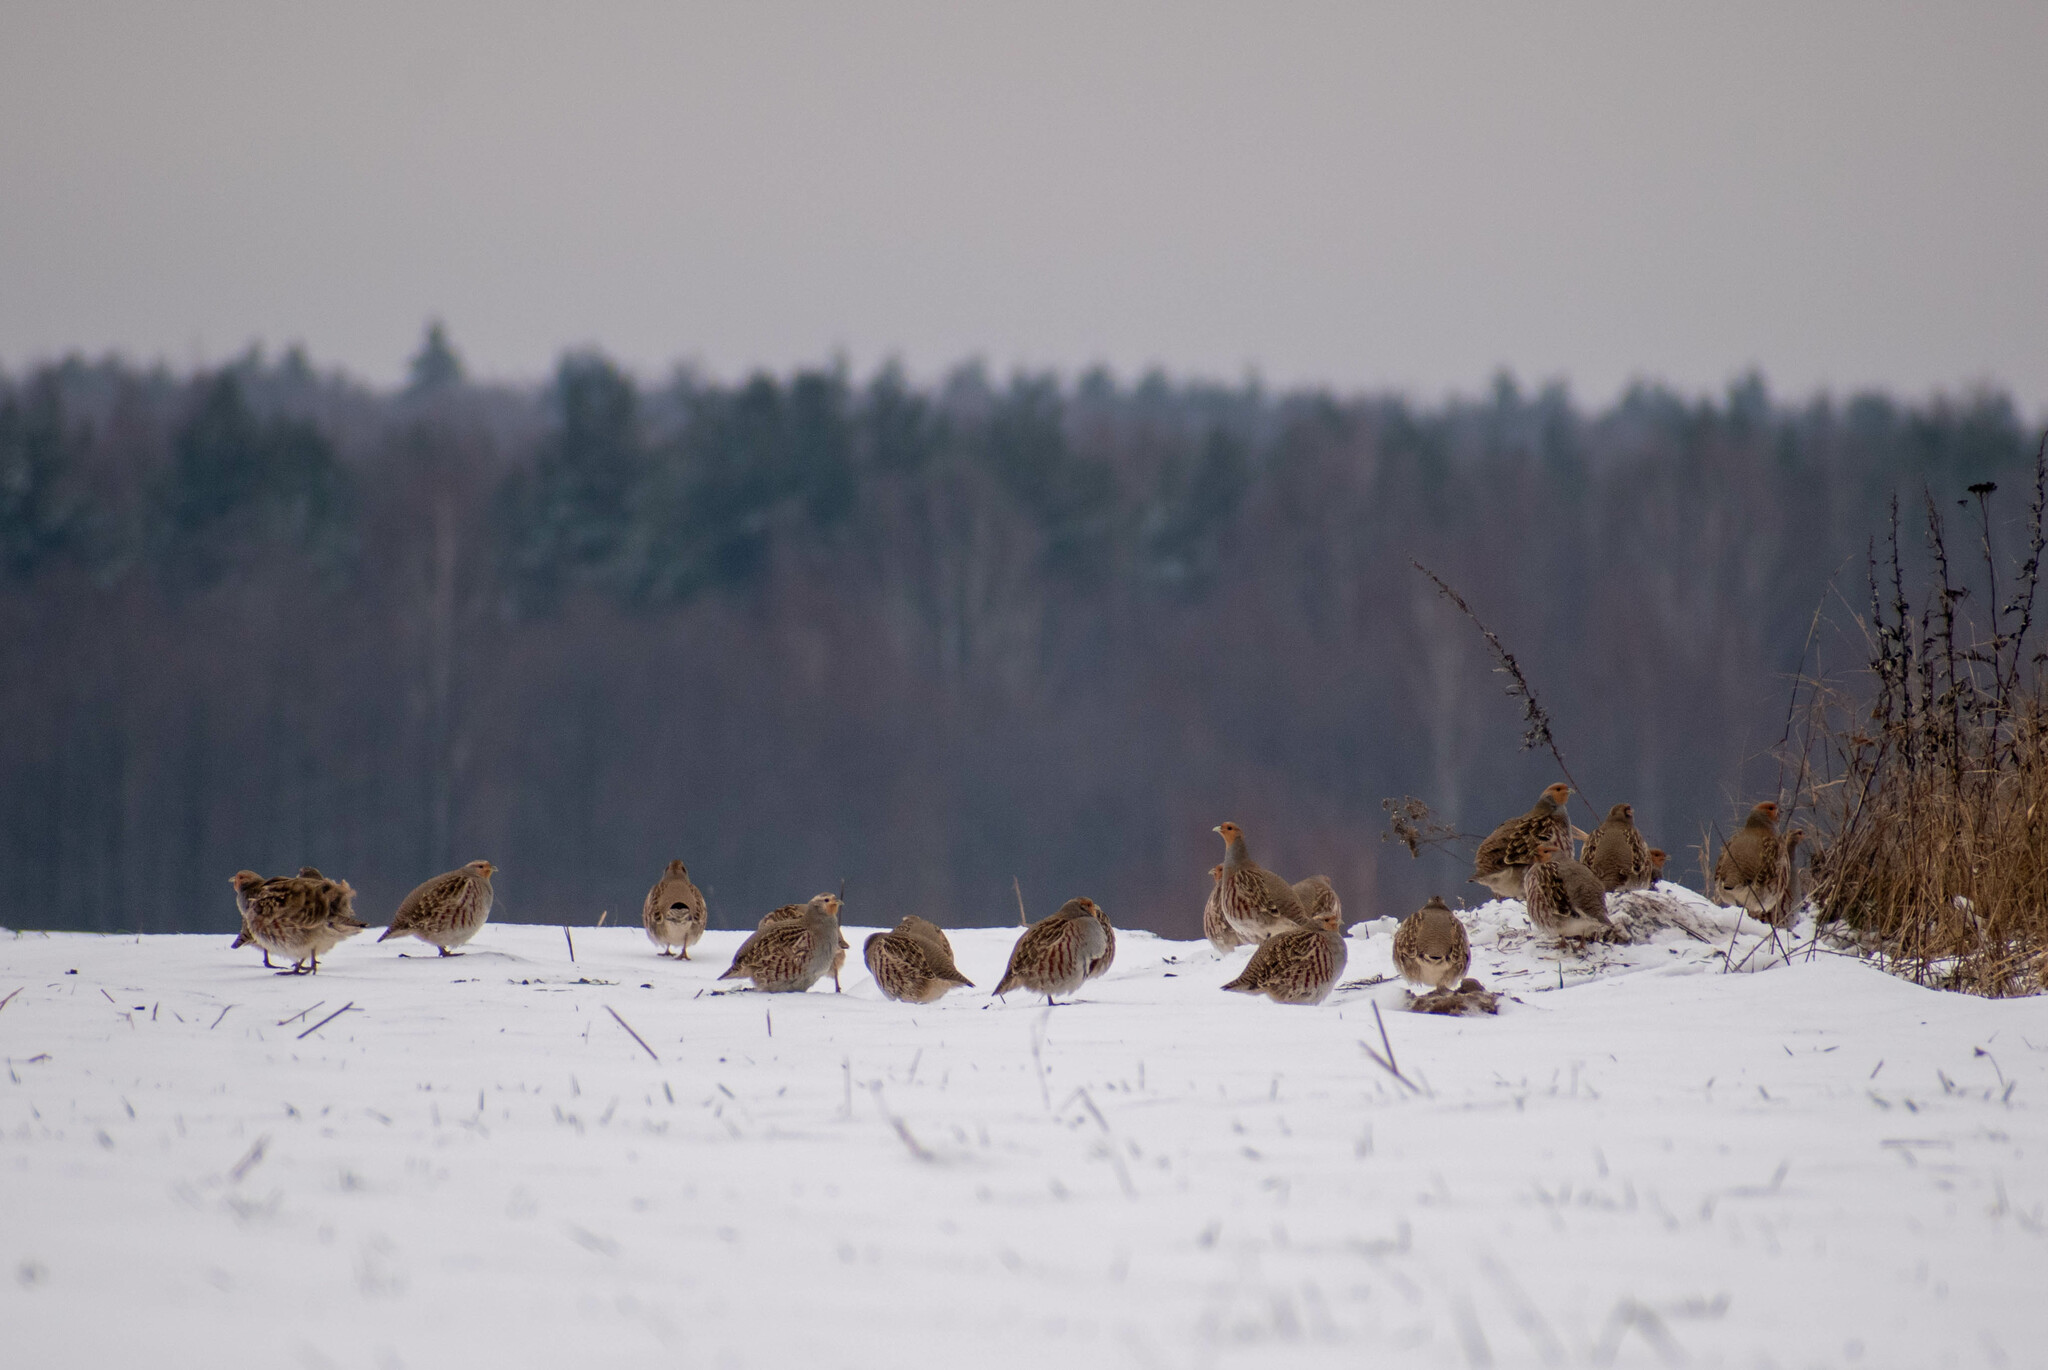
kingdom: Animalia
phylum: Chordata
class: Aves
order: Galliformes
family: Phasianidae
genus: Perdix
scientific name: Perdix perdix
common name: Grey partridge
